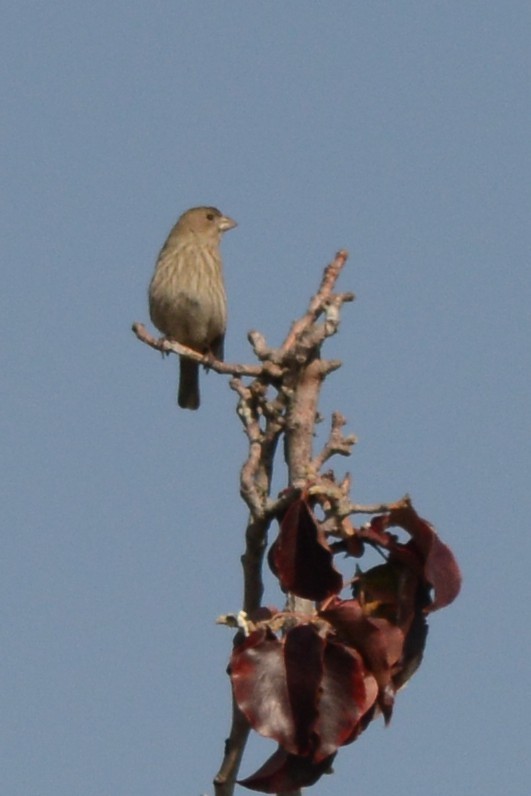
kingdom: Animalia
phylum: Chordata
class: Aves
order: Passeriformes
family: Fringillidae
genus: Haemorhous
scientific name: Haemorhous mexicanus
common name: House finch
